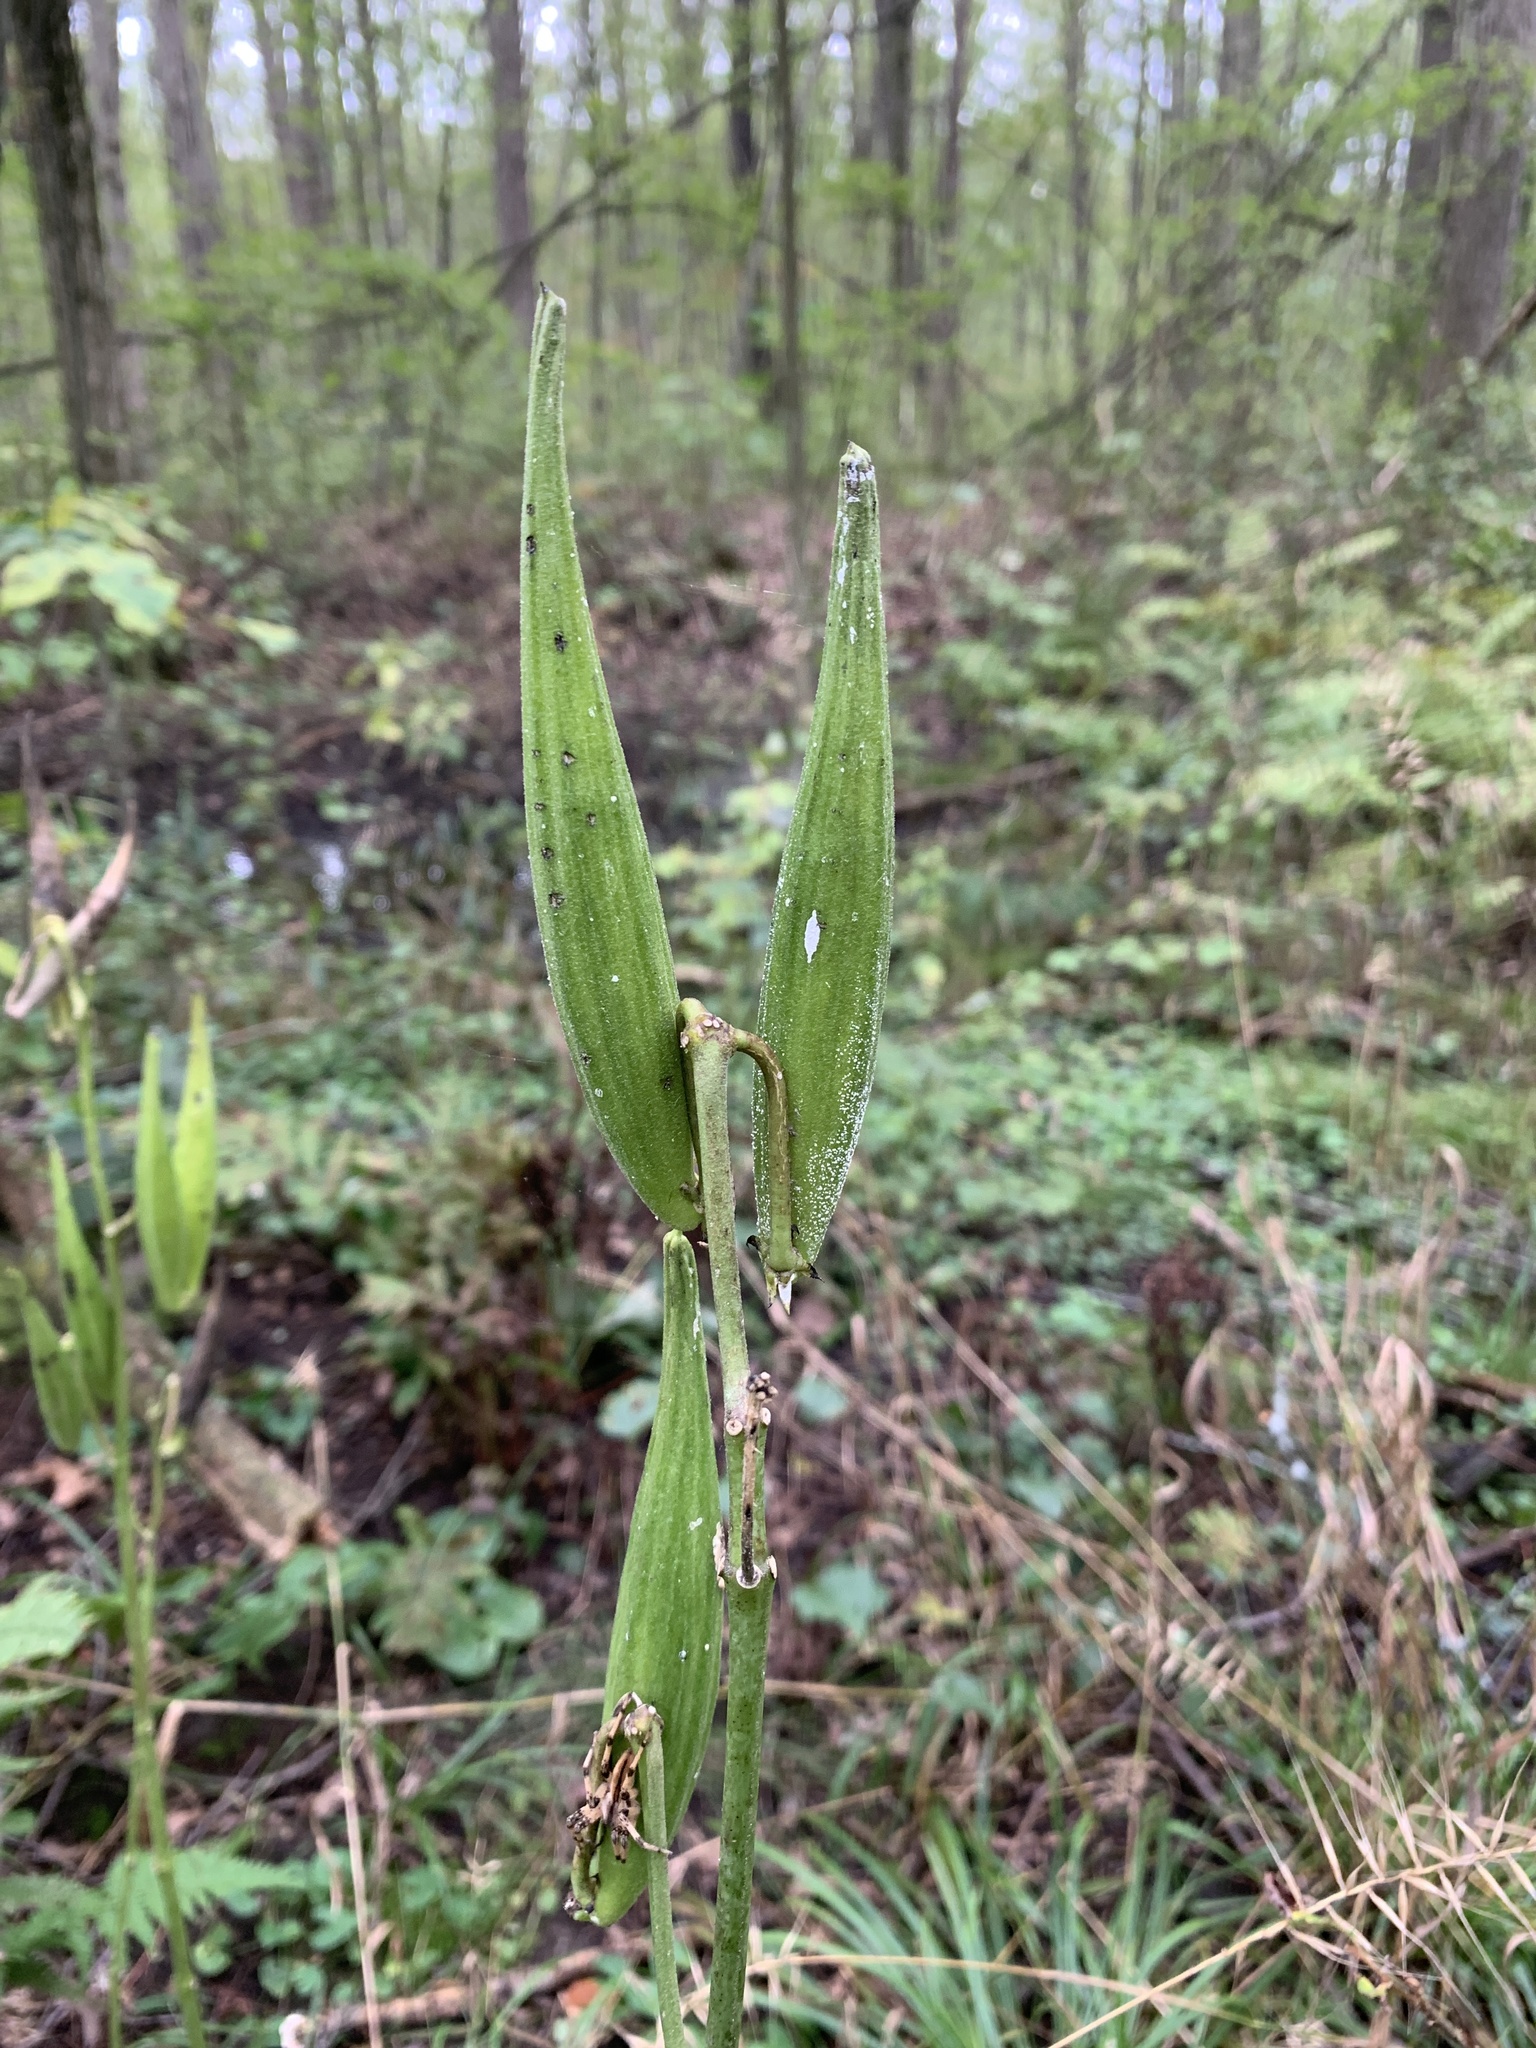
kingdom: Plantae
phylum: Tracheophyta
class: Magnoliopsida
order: Gentianales
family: Apocynaceae
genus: Asclepias
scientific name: Asclepias exaltata
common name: Poke milkweed
